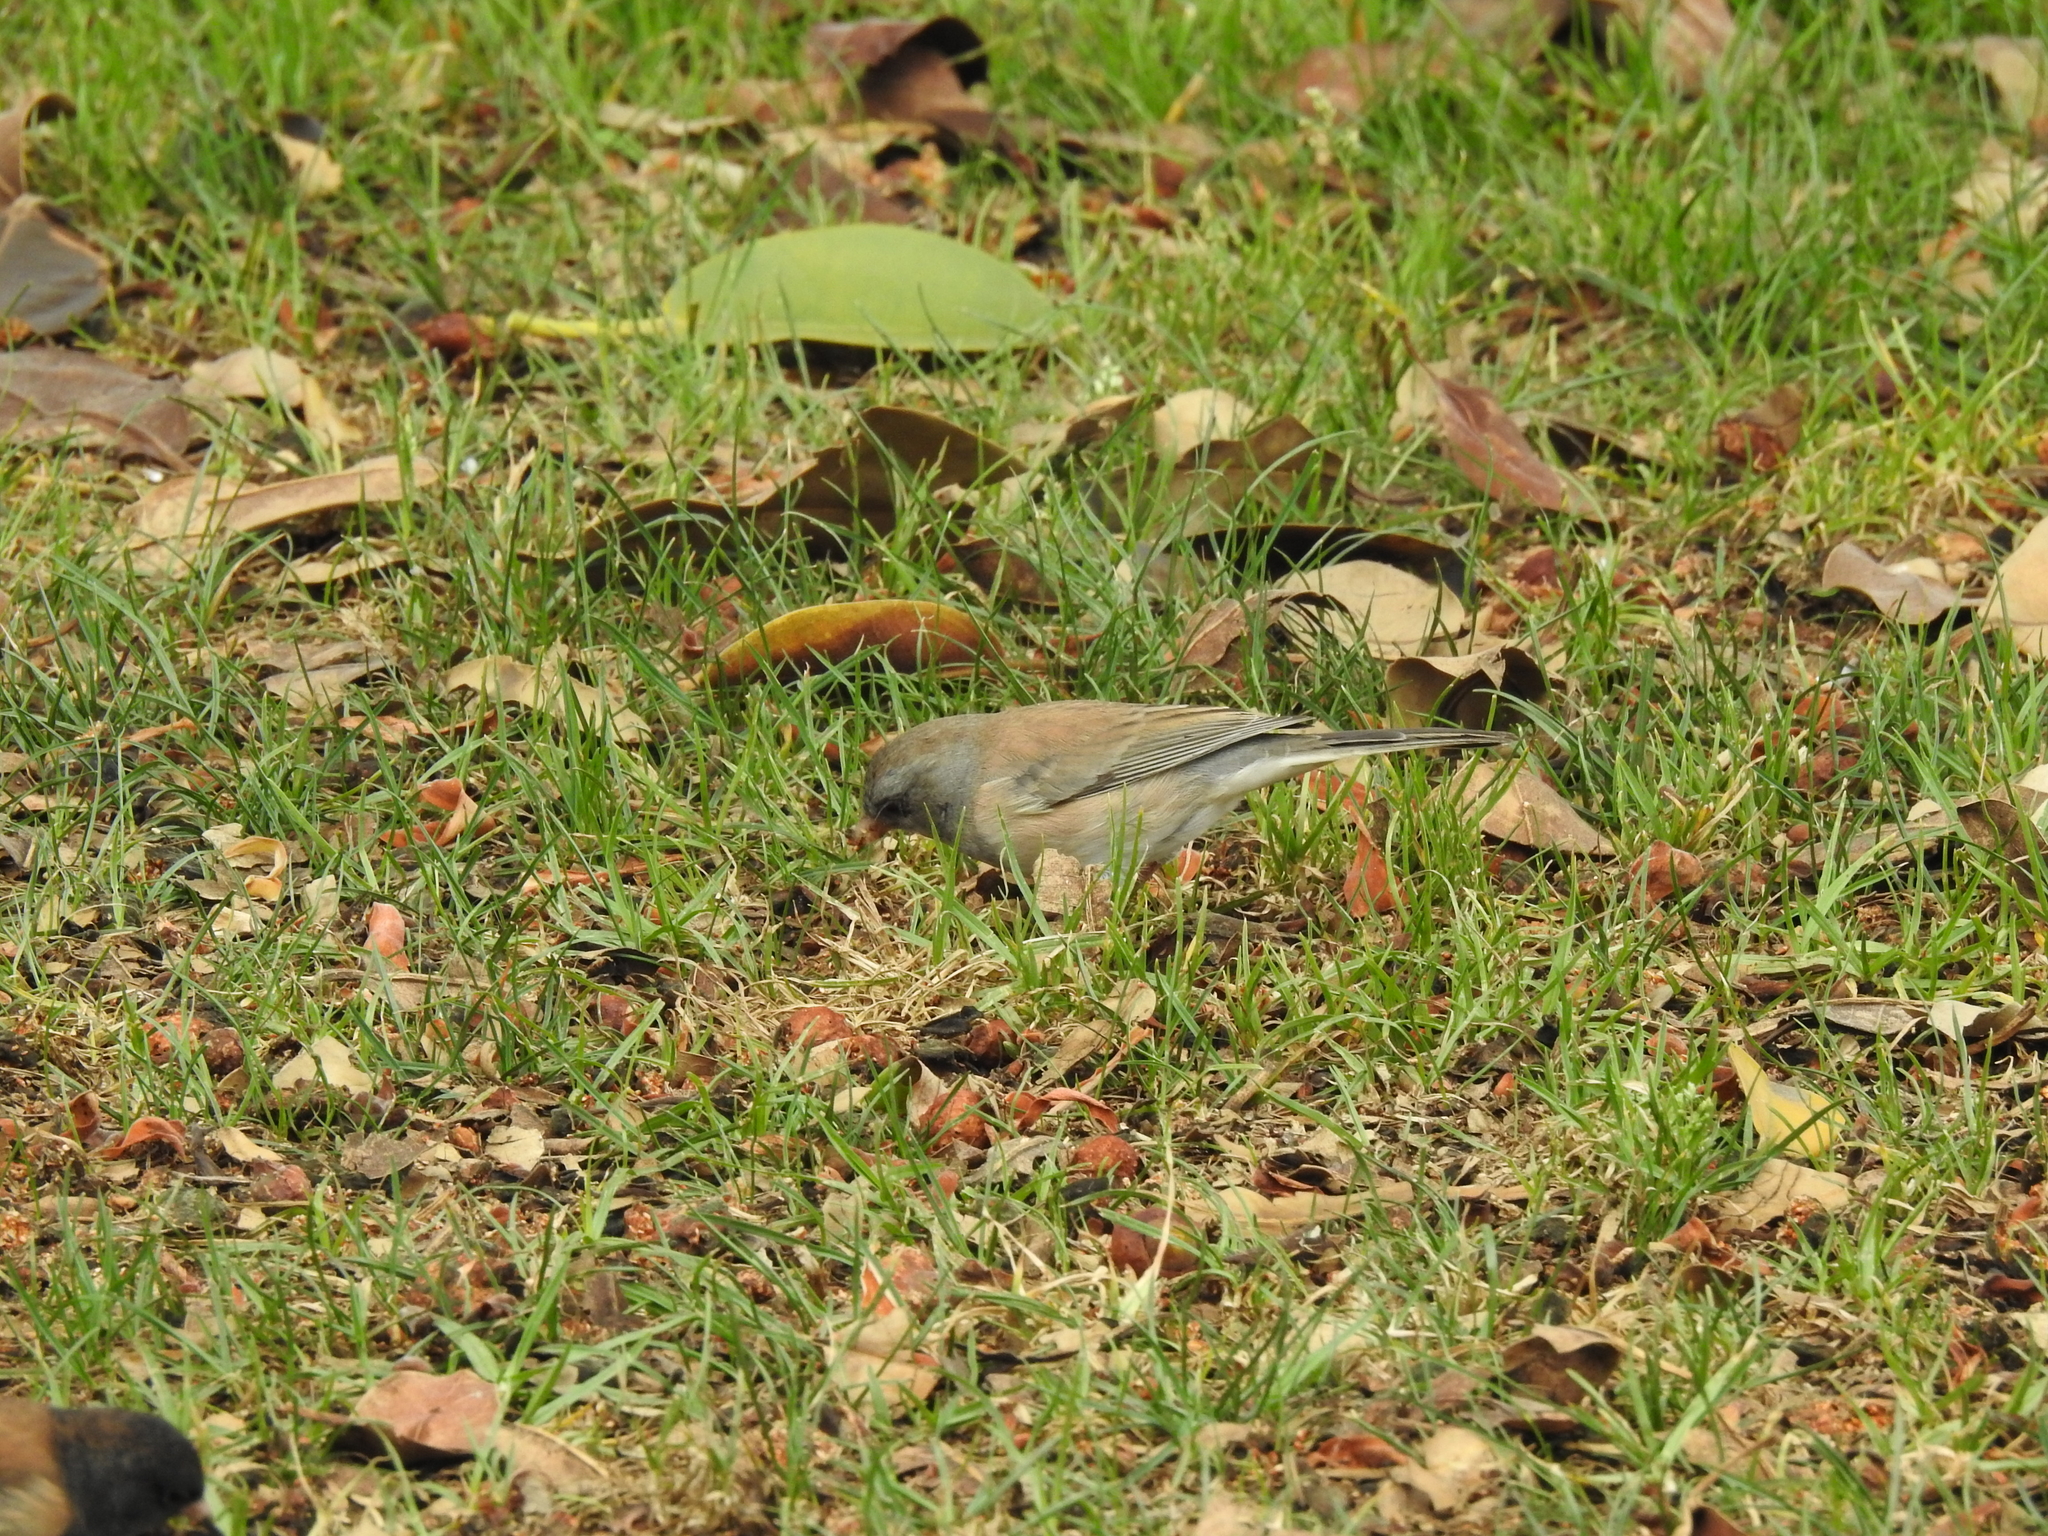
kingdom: Animalia
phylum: Chordata
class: Aves
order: Passeriformes
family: Passerellidae
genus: Junco
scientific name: Junco hyemalis
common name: Dark-eyed junco
